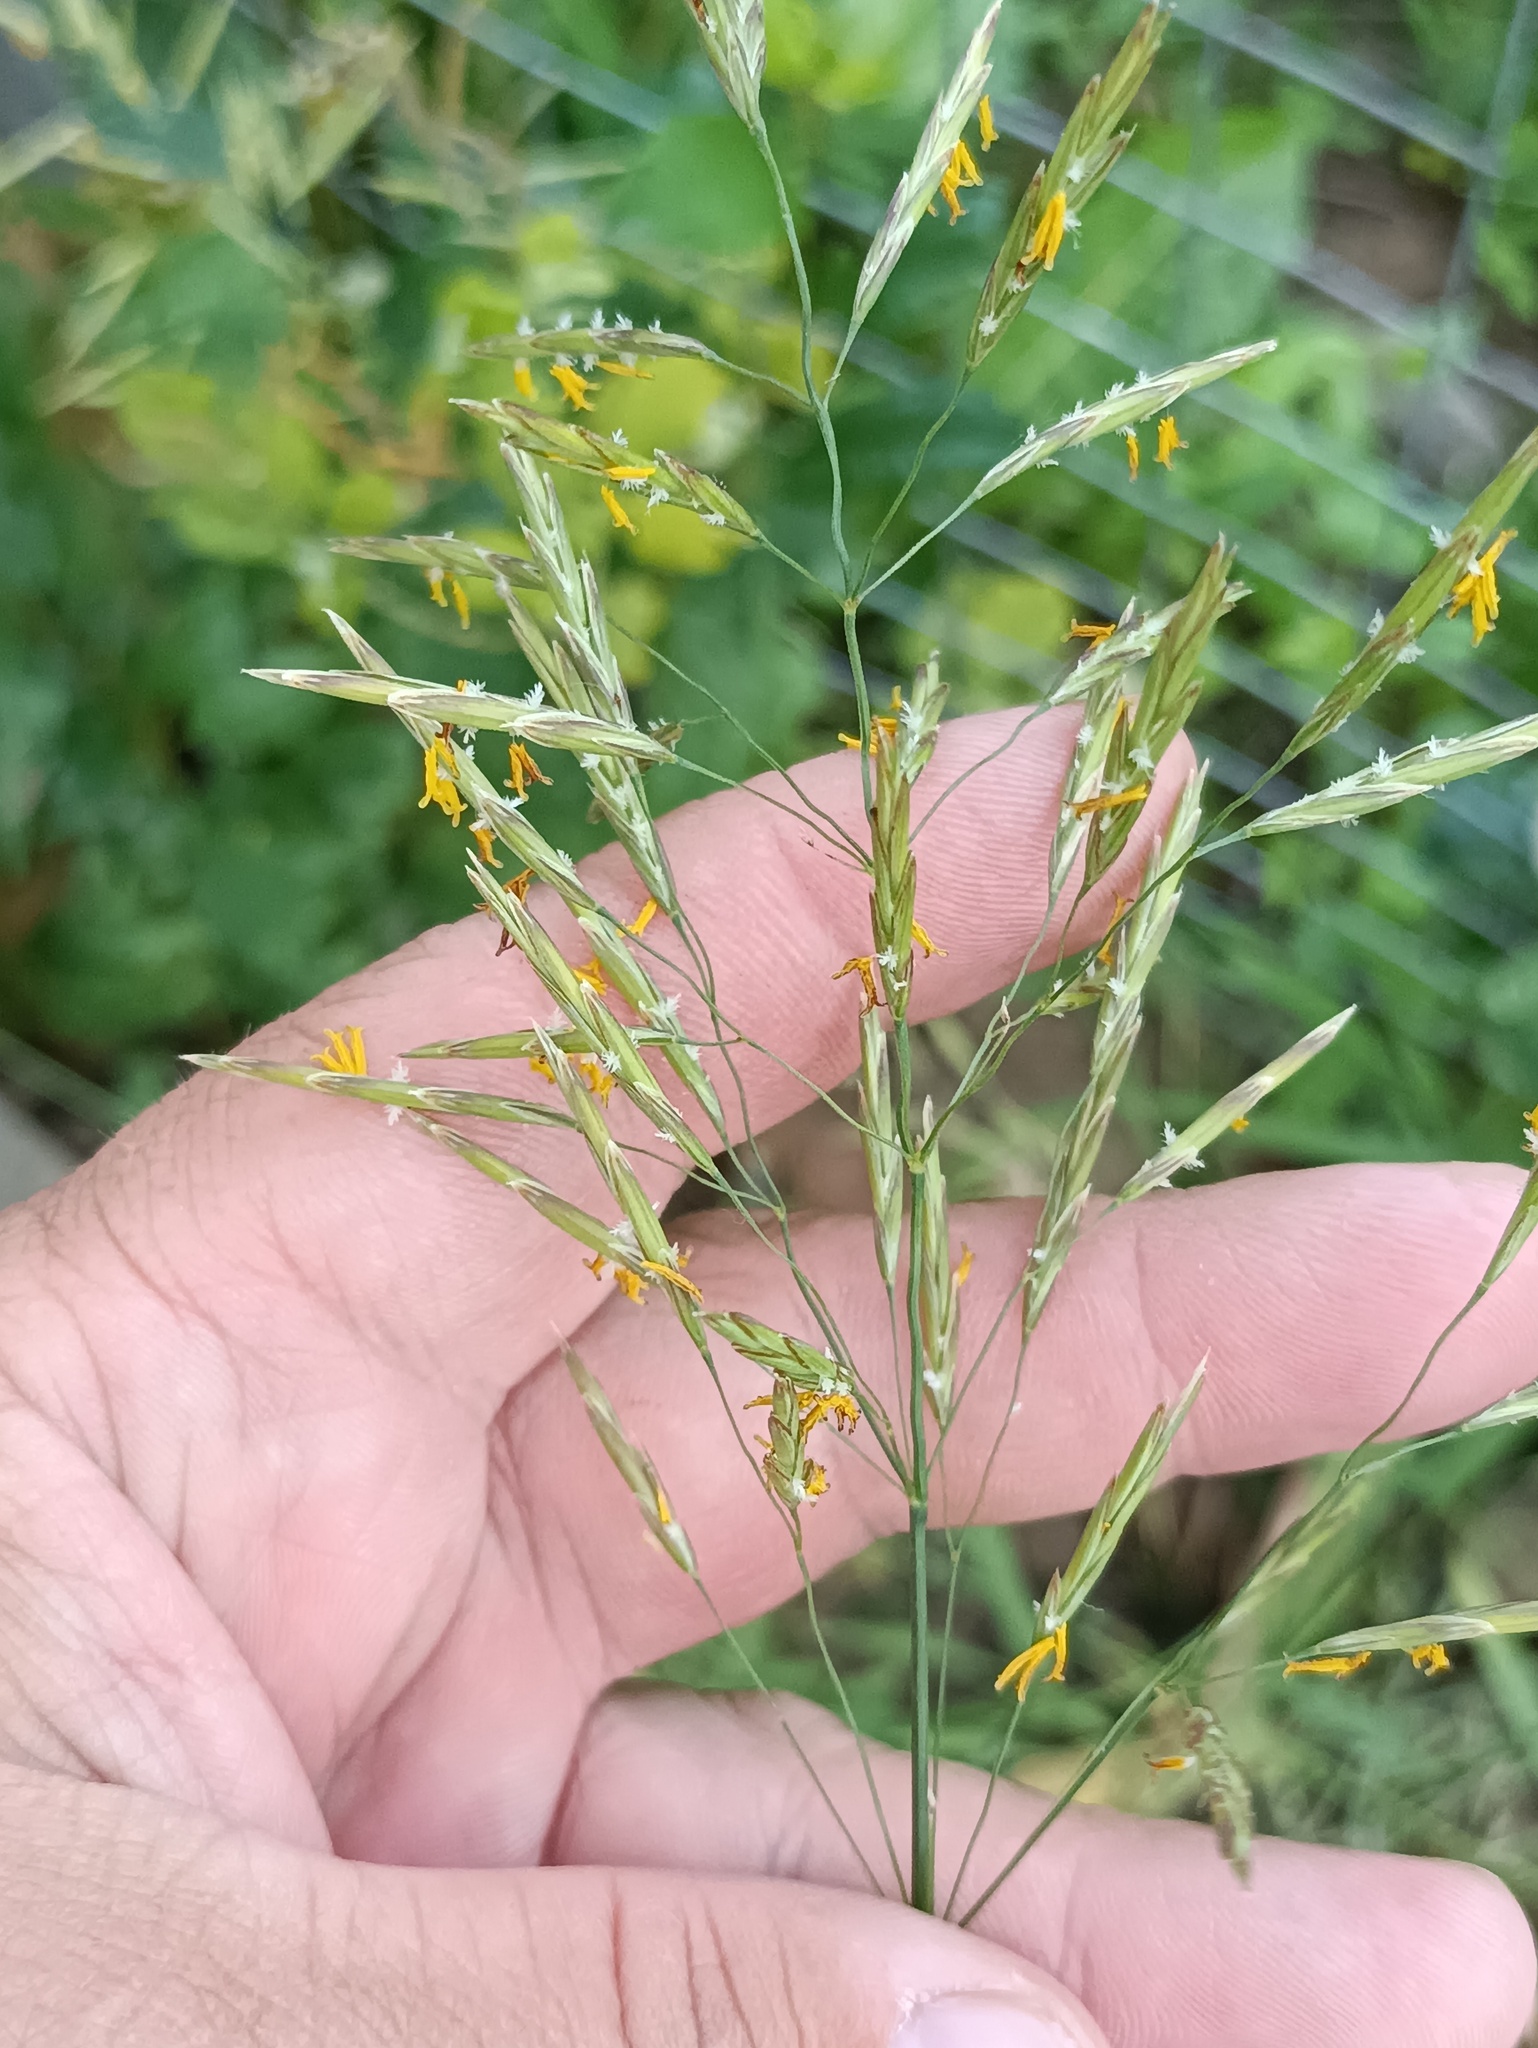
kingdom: Plantae
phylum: Tracheophyta
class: Liliopsida
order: Poales
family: Poaceae
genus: Bromus
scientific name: Bromus inermis
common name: Smooth brome
